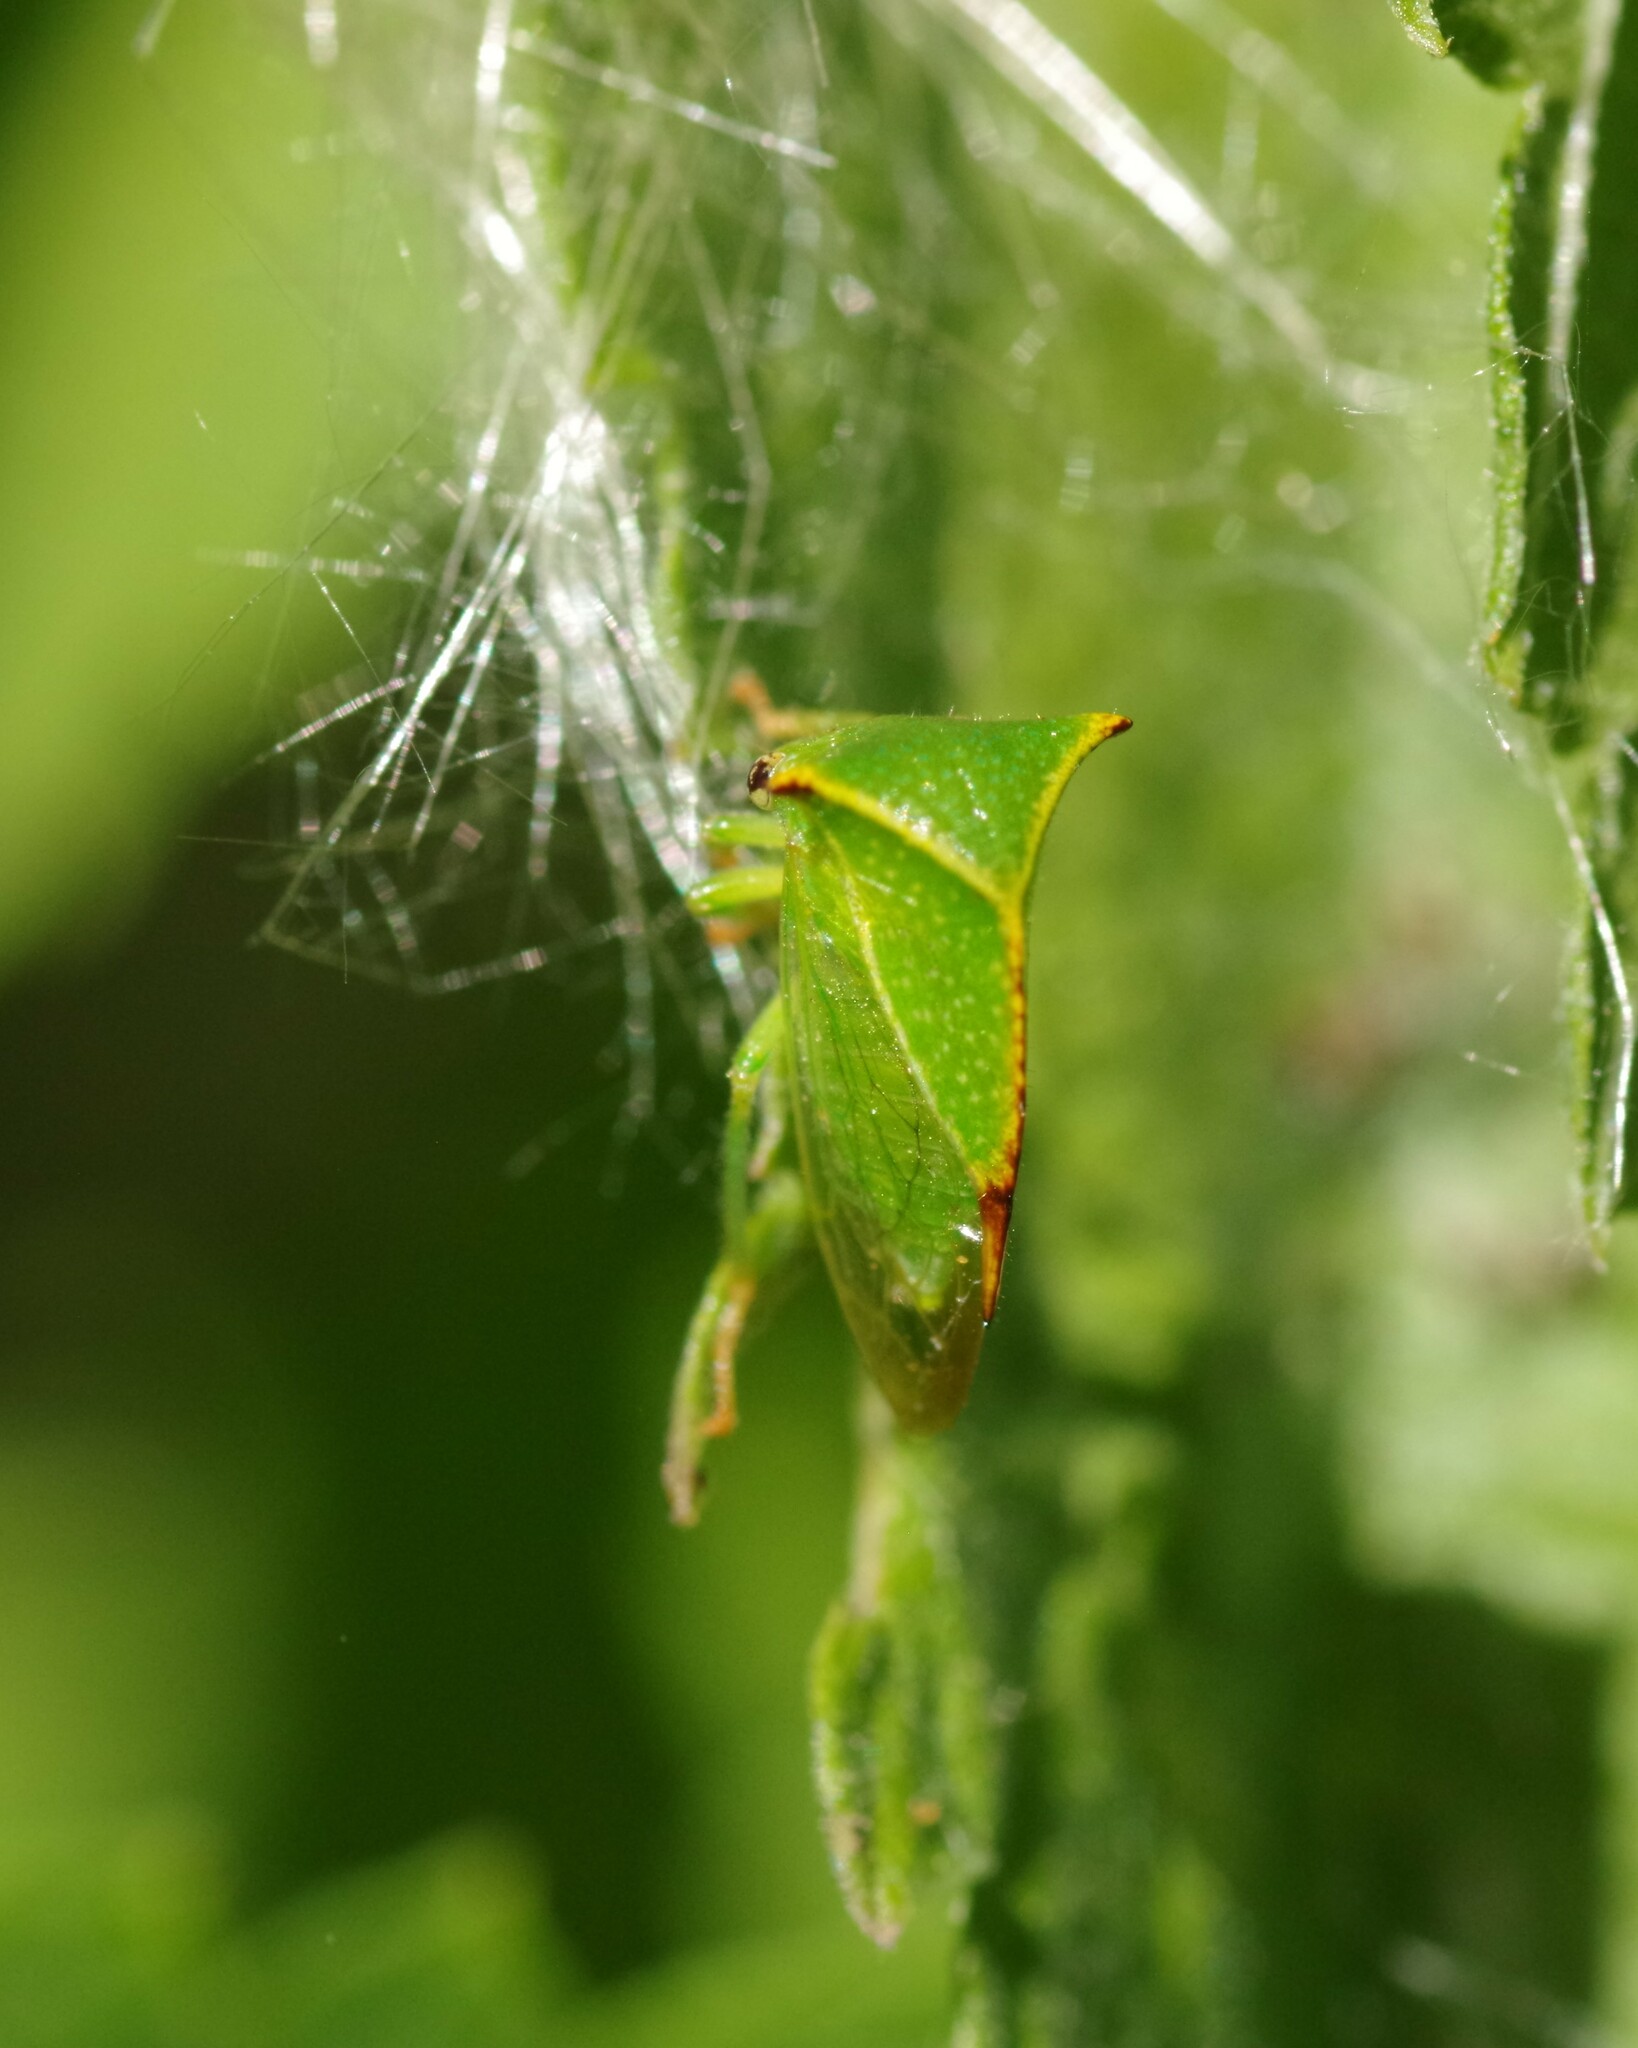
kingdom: Animalia
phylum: Arthropoda
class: Insecta
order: Hemiptera
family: Membracidae
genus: Stictocephala
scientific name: Stictocephala bisonia
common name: American buffalo treehopper
